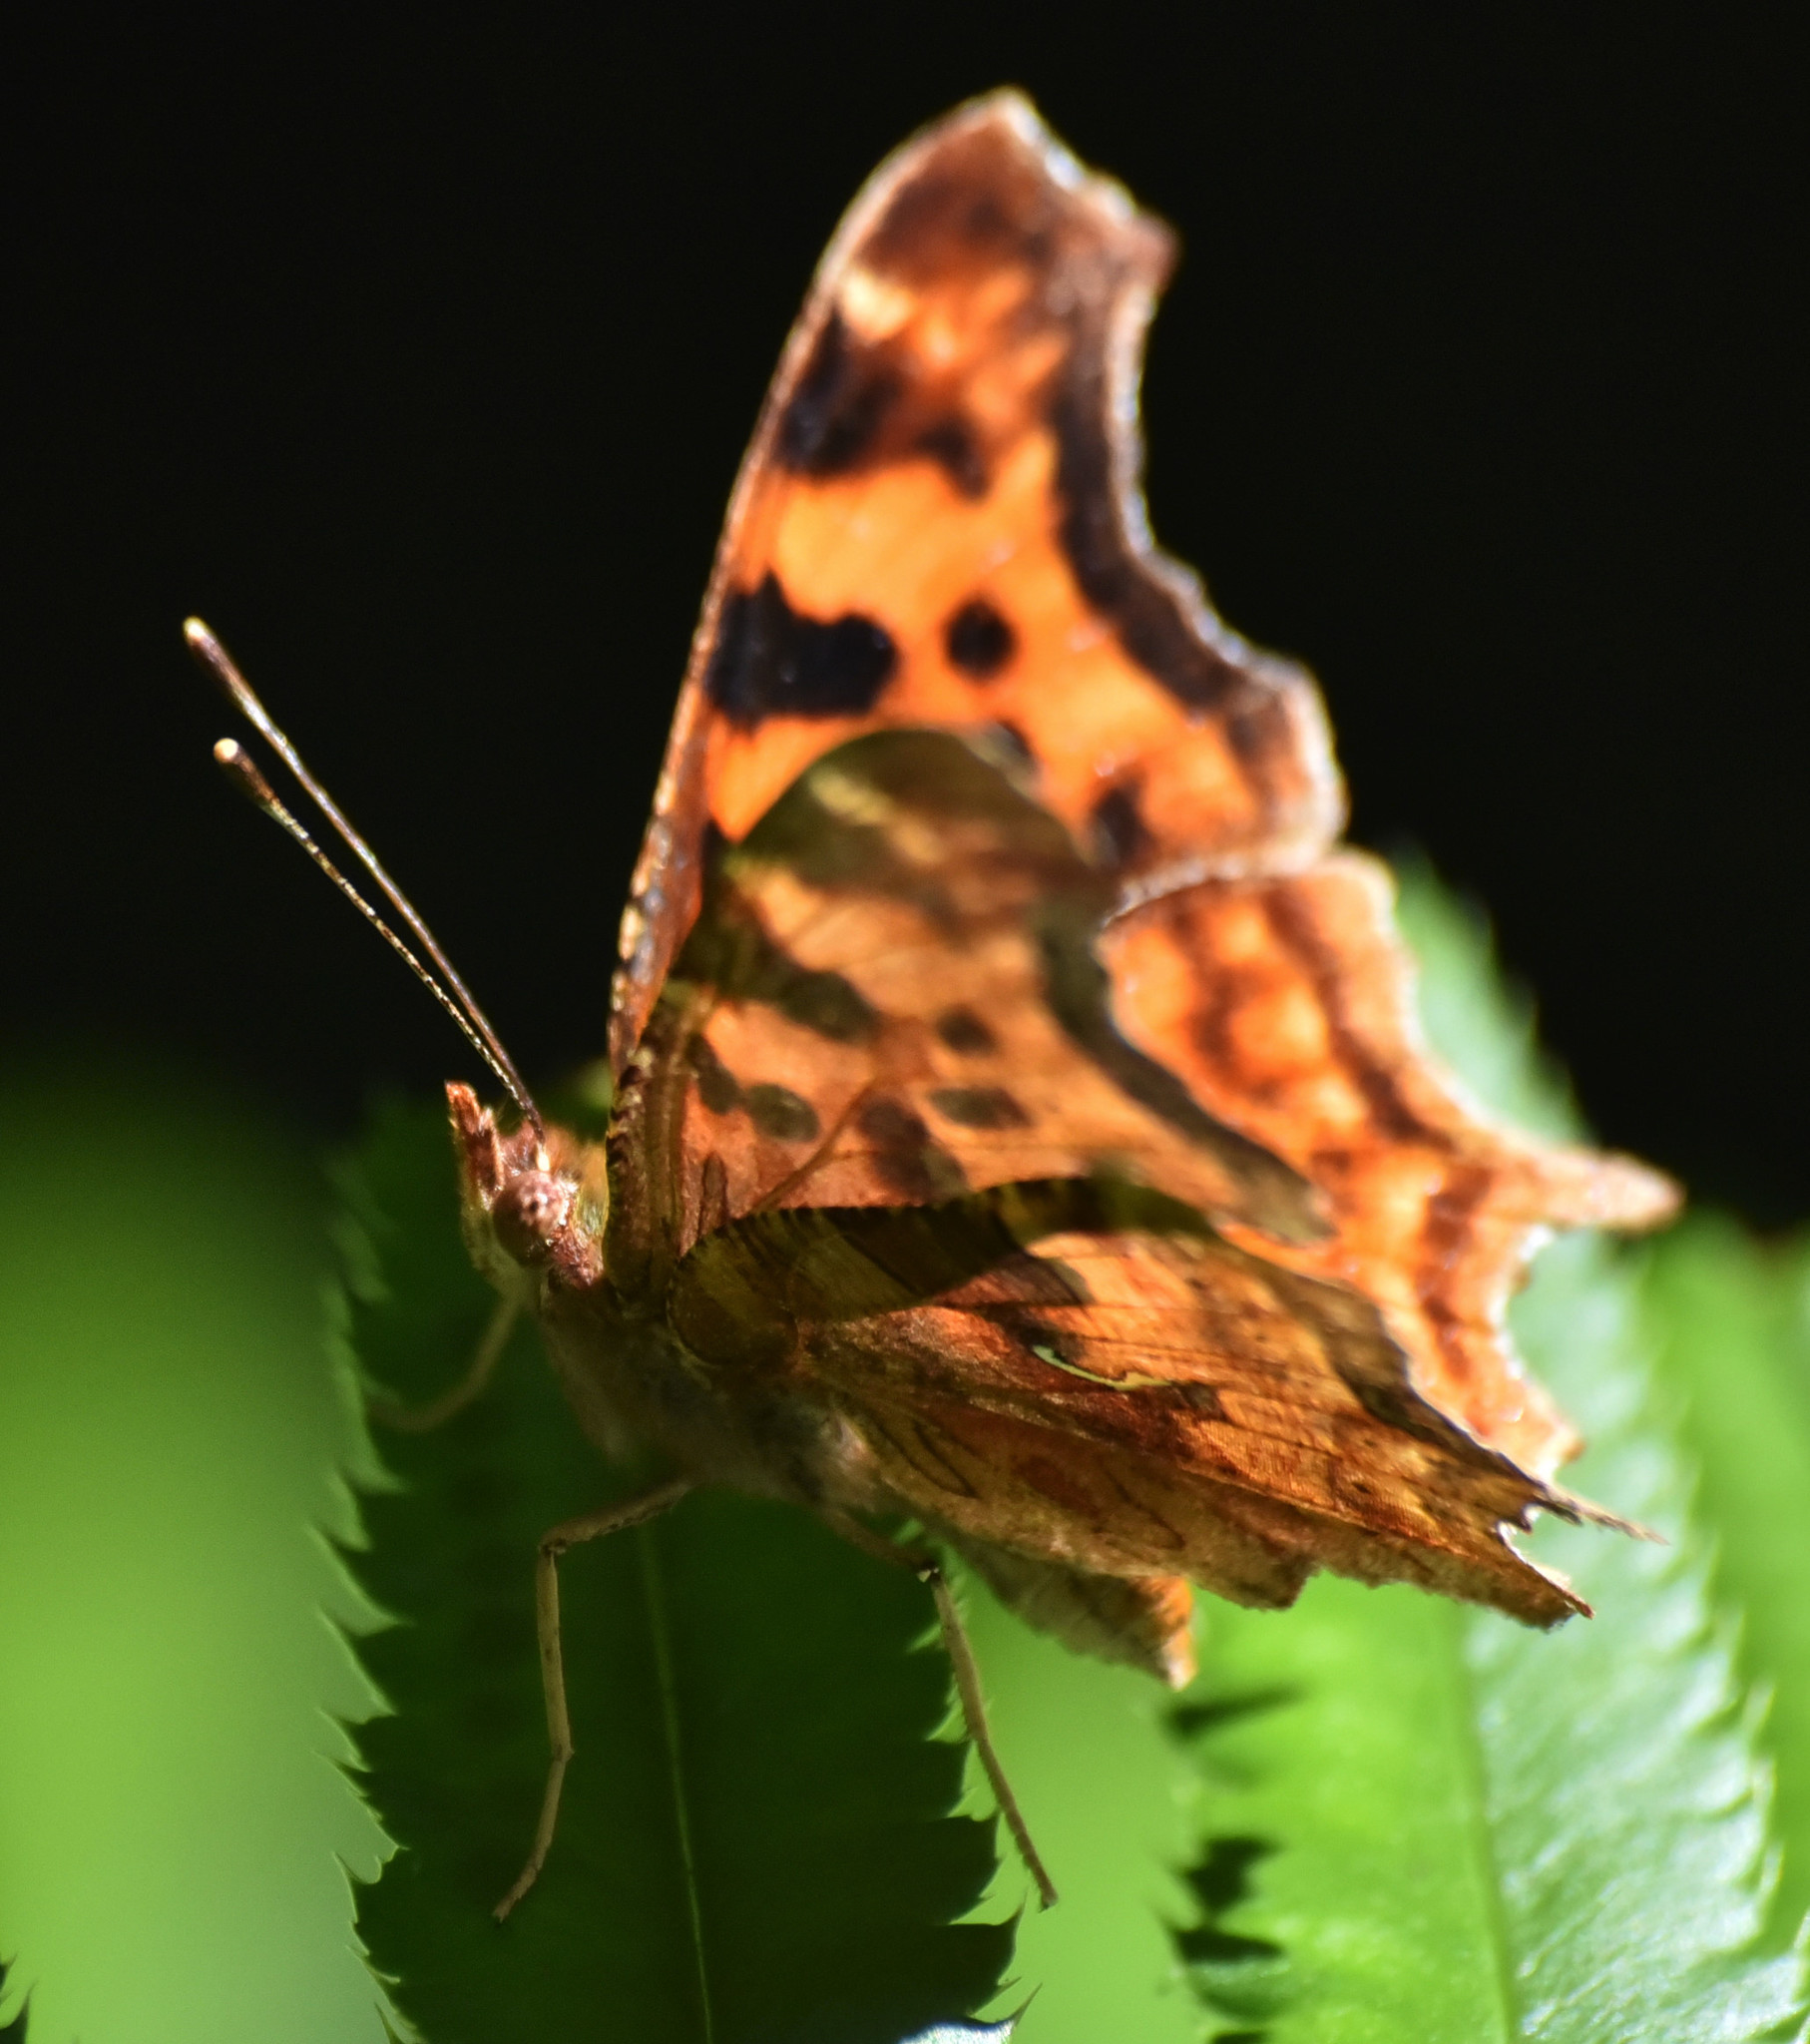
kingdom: Animalia
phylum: Arthropoda
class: Insecta
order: Lepidoptera
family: Nymphalidae
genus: Polygonia
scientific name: Polygonia satyrus
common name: Satyr angle wing
